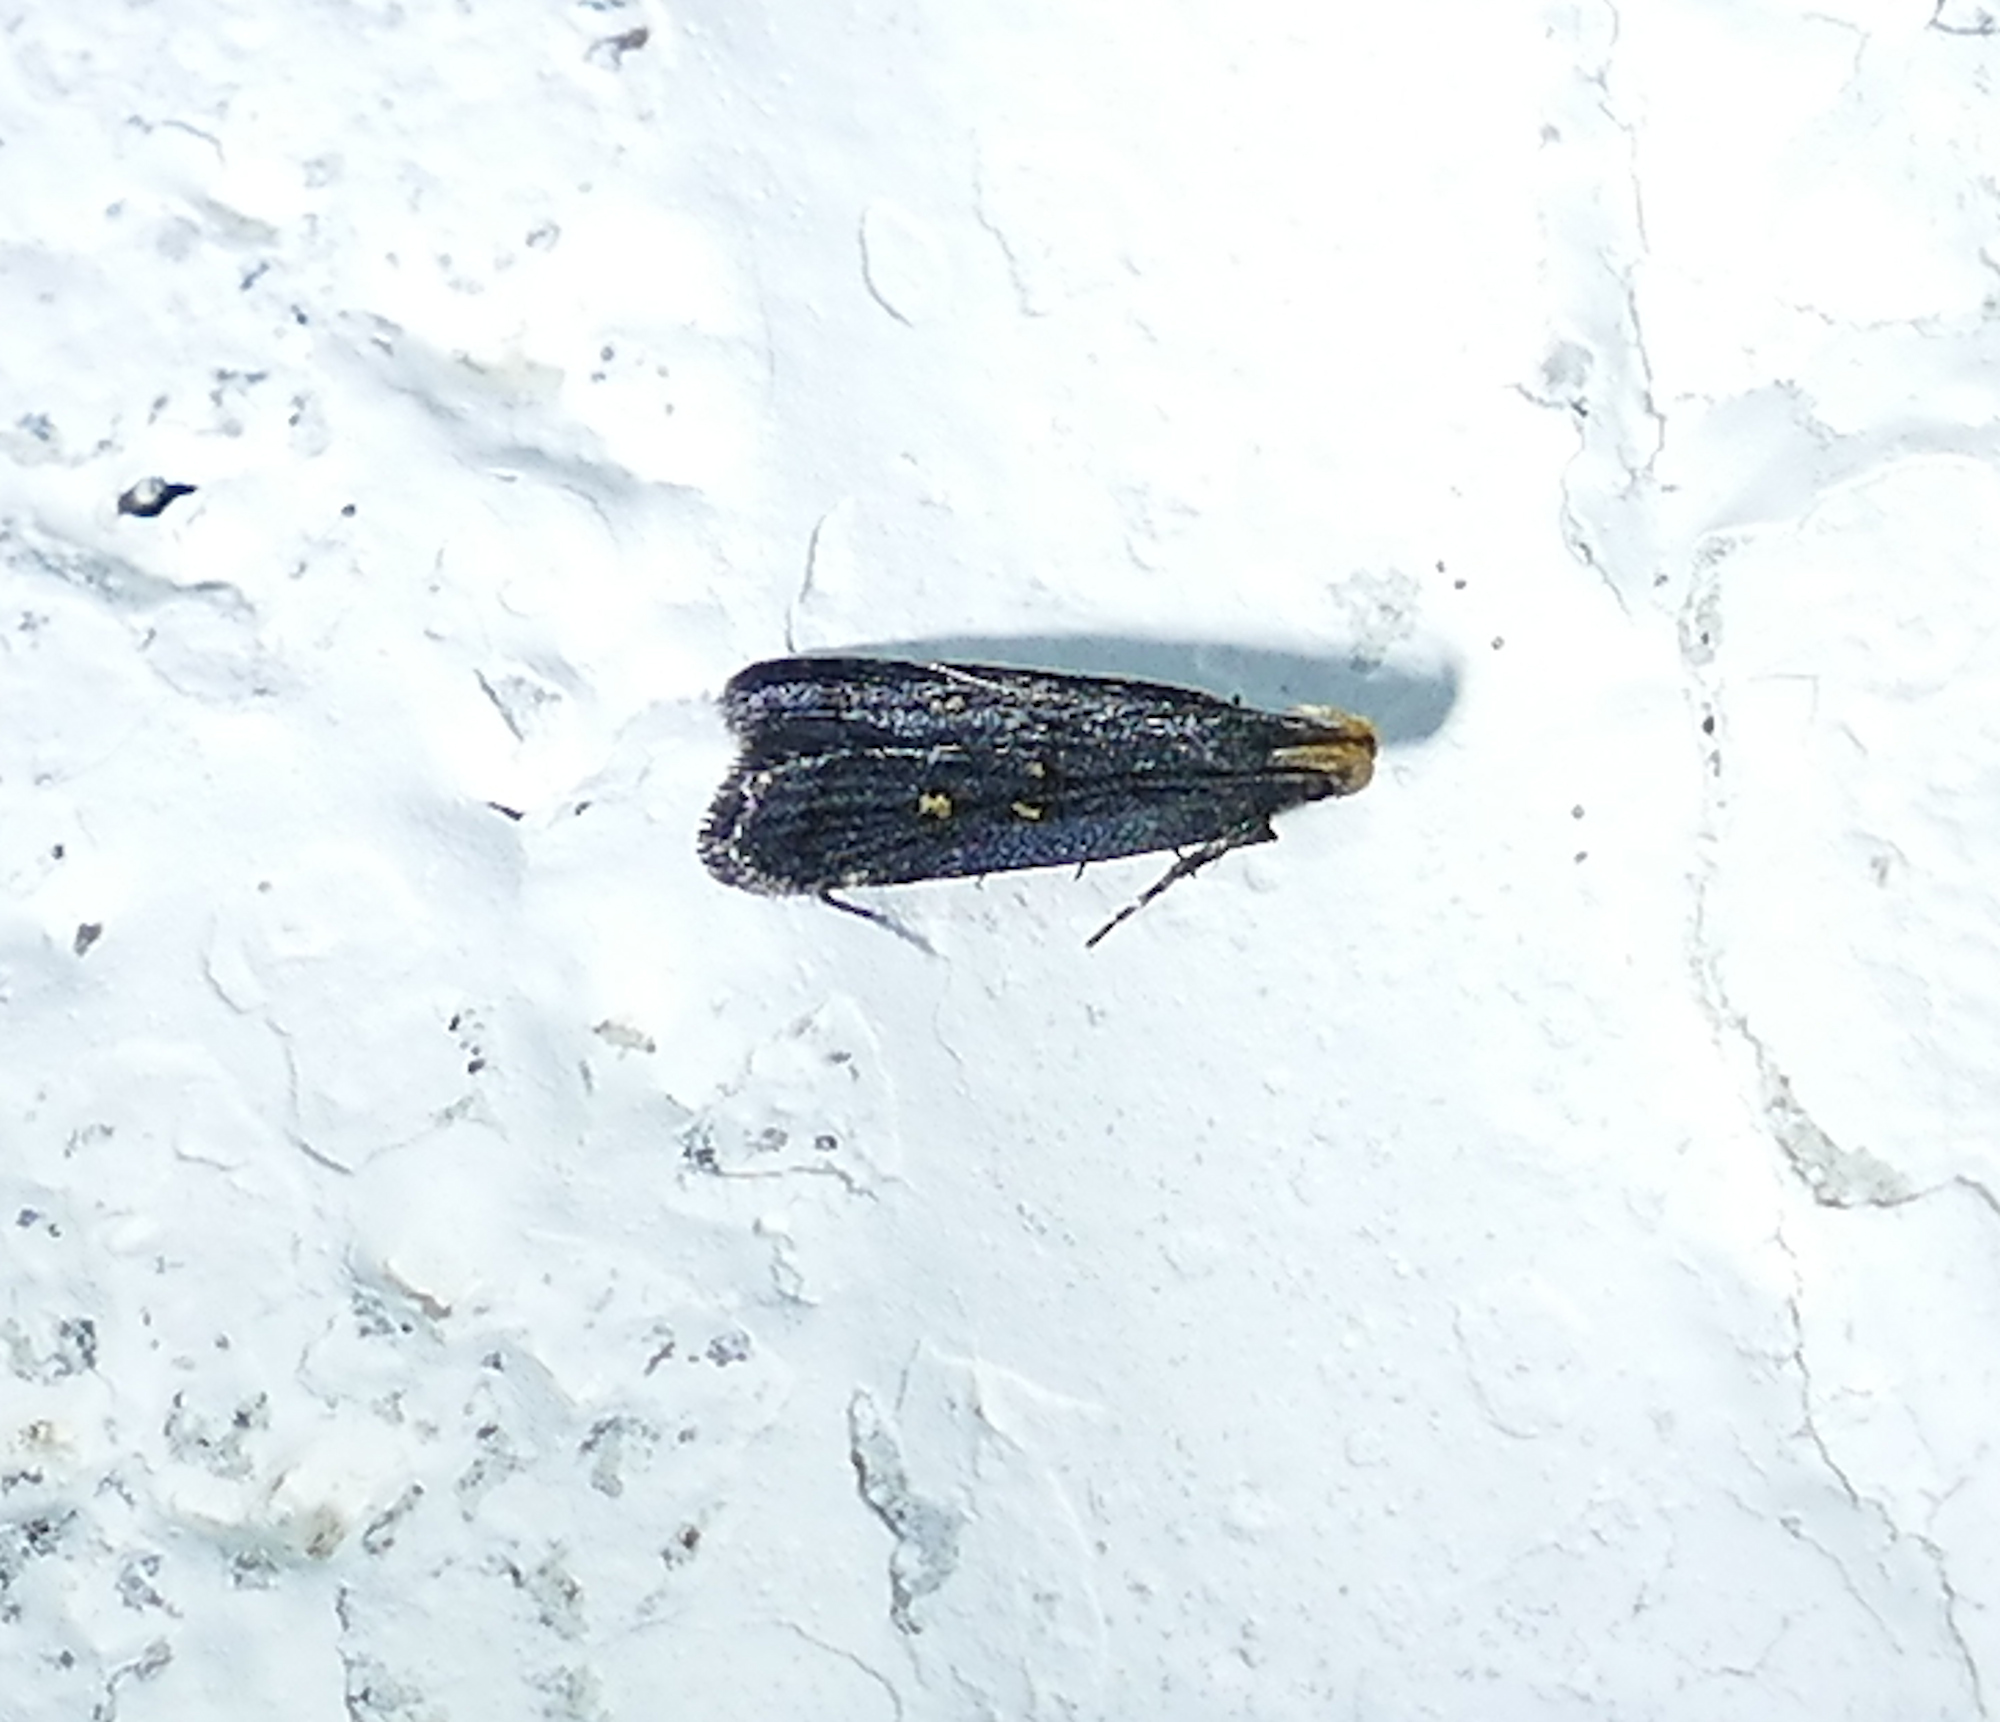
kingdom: Animalia
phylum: Arthropoda
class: Insecta
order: Lepidoptera
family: Gelechiidae
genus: Dichomeris
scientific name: Dichomeris agonia
